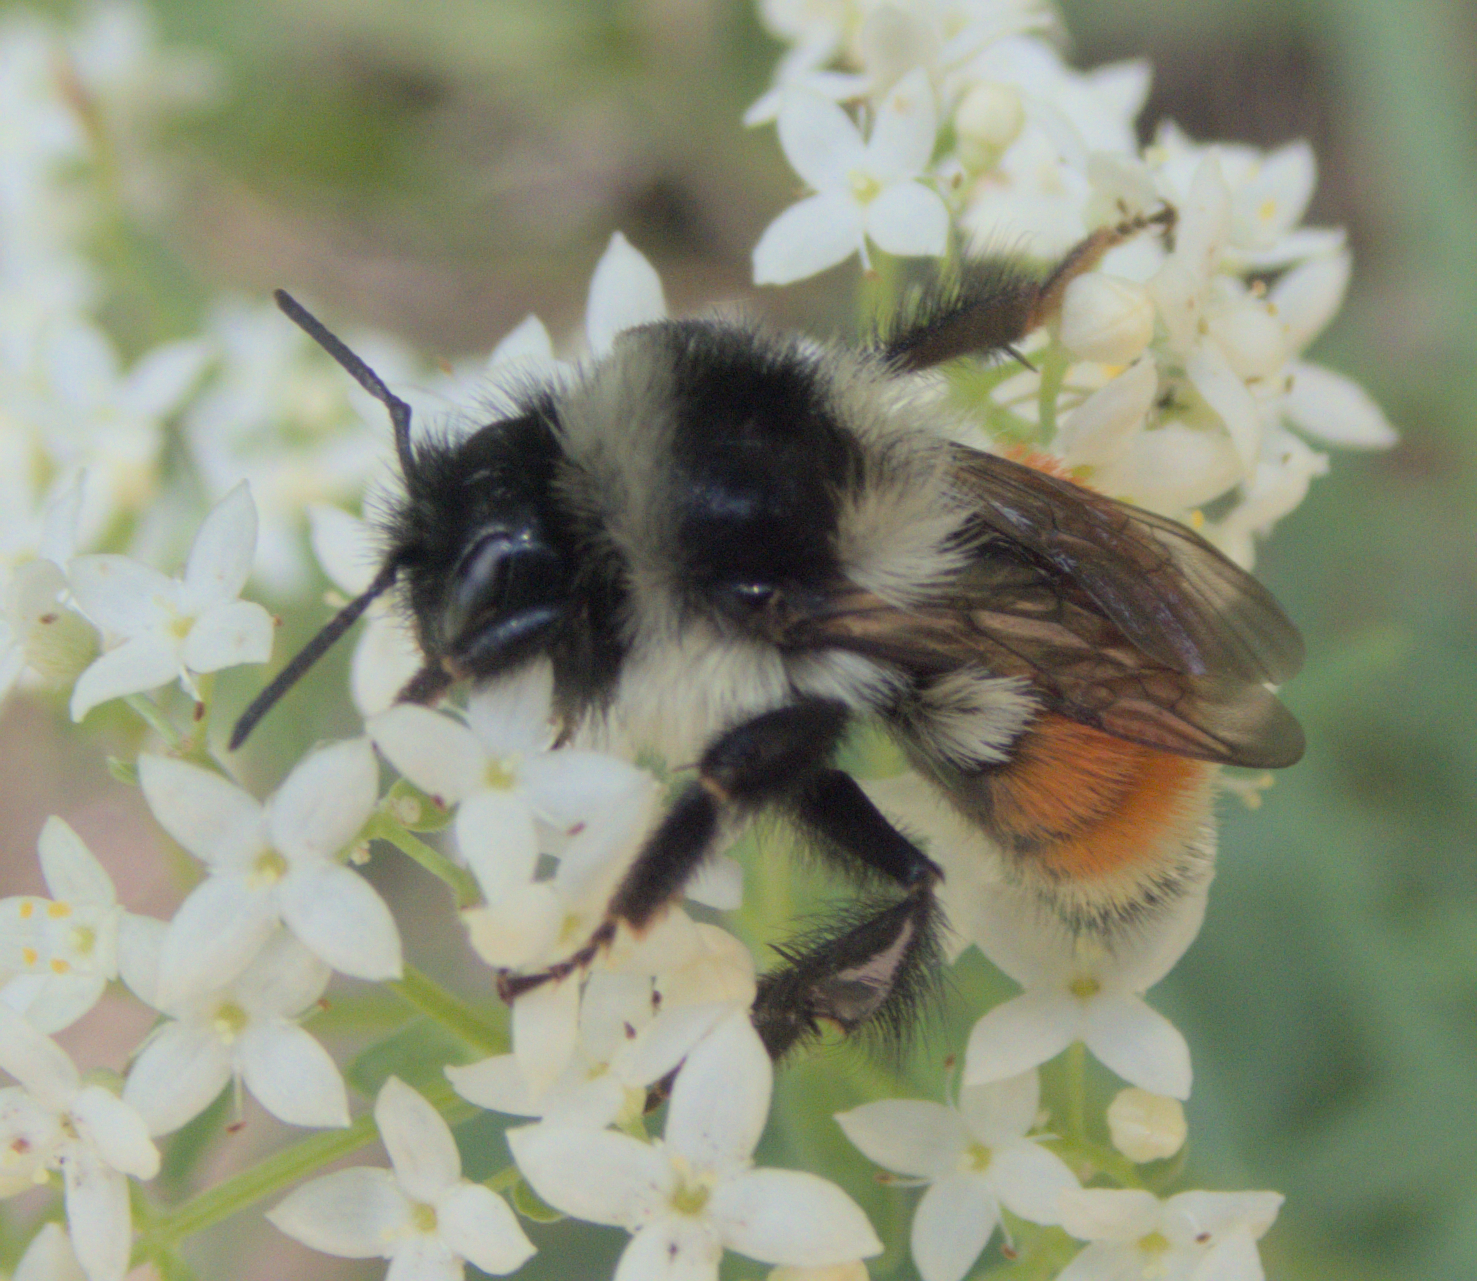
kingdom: Animalia
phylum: Arthropoda
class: Insecta
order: Hymenoptera
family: Apidae
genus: Bombus
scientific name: Bombus ternarius
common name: Tri-colored bumble bee
